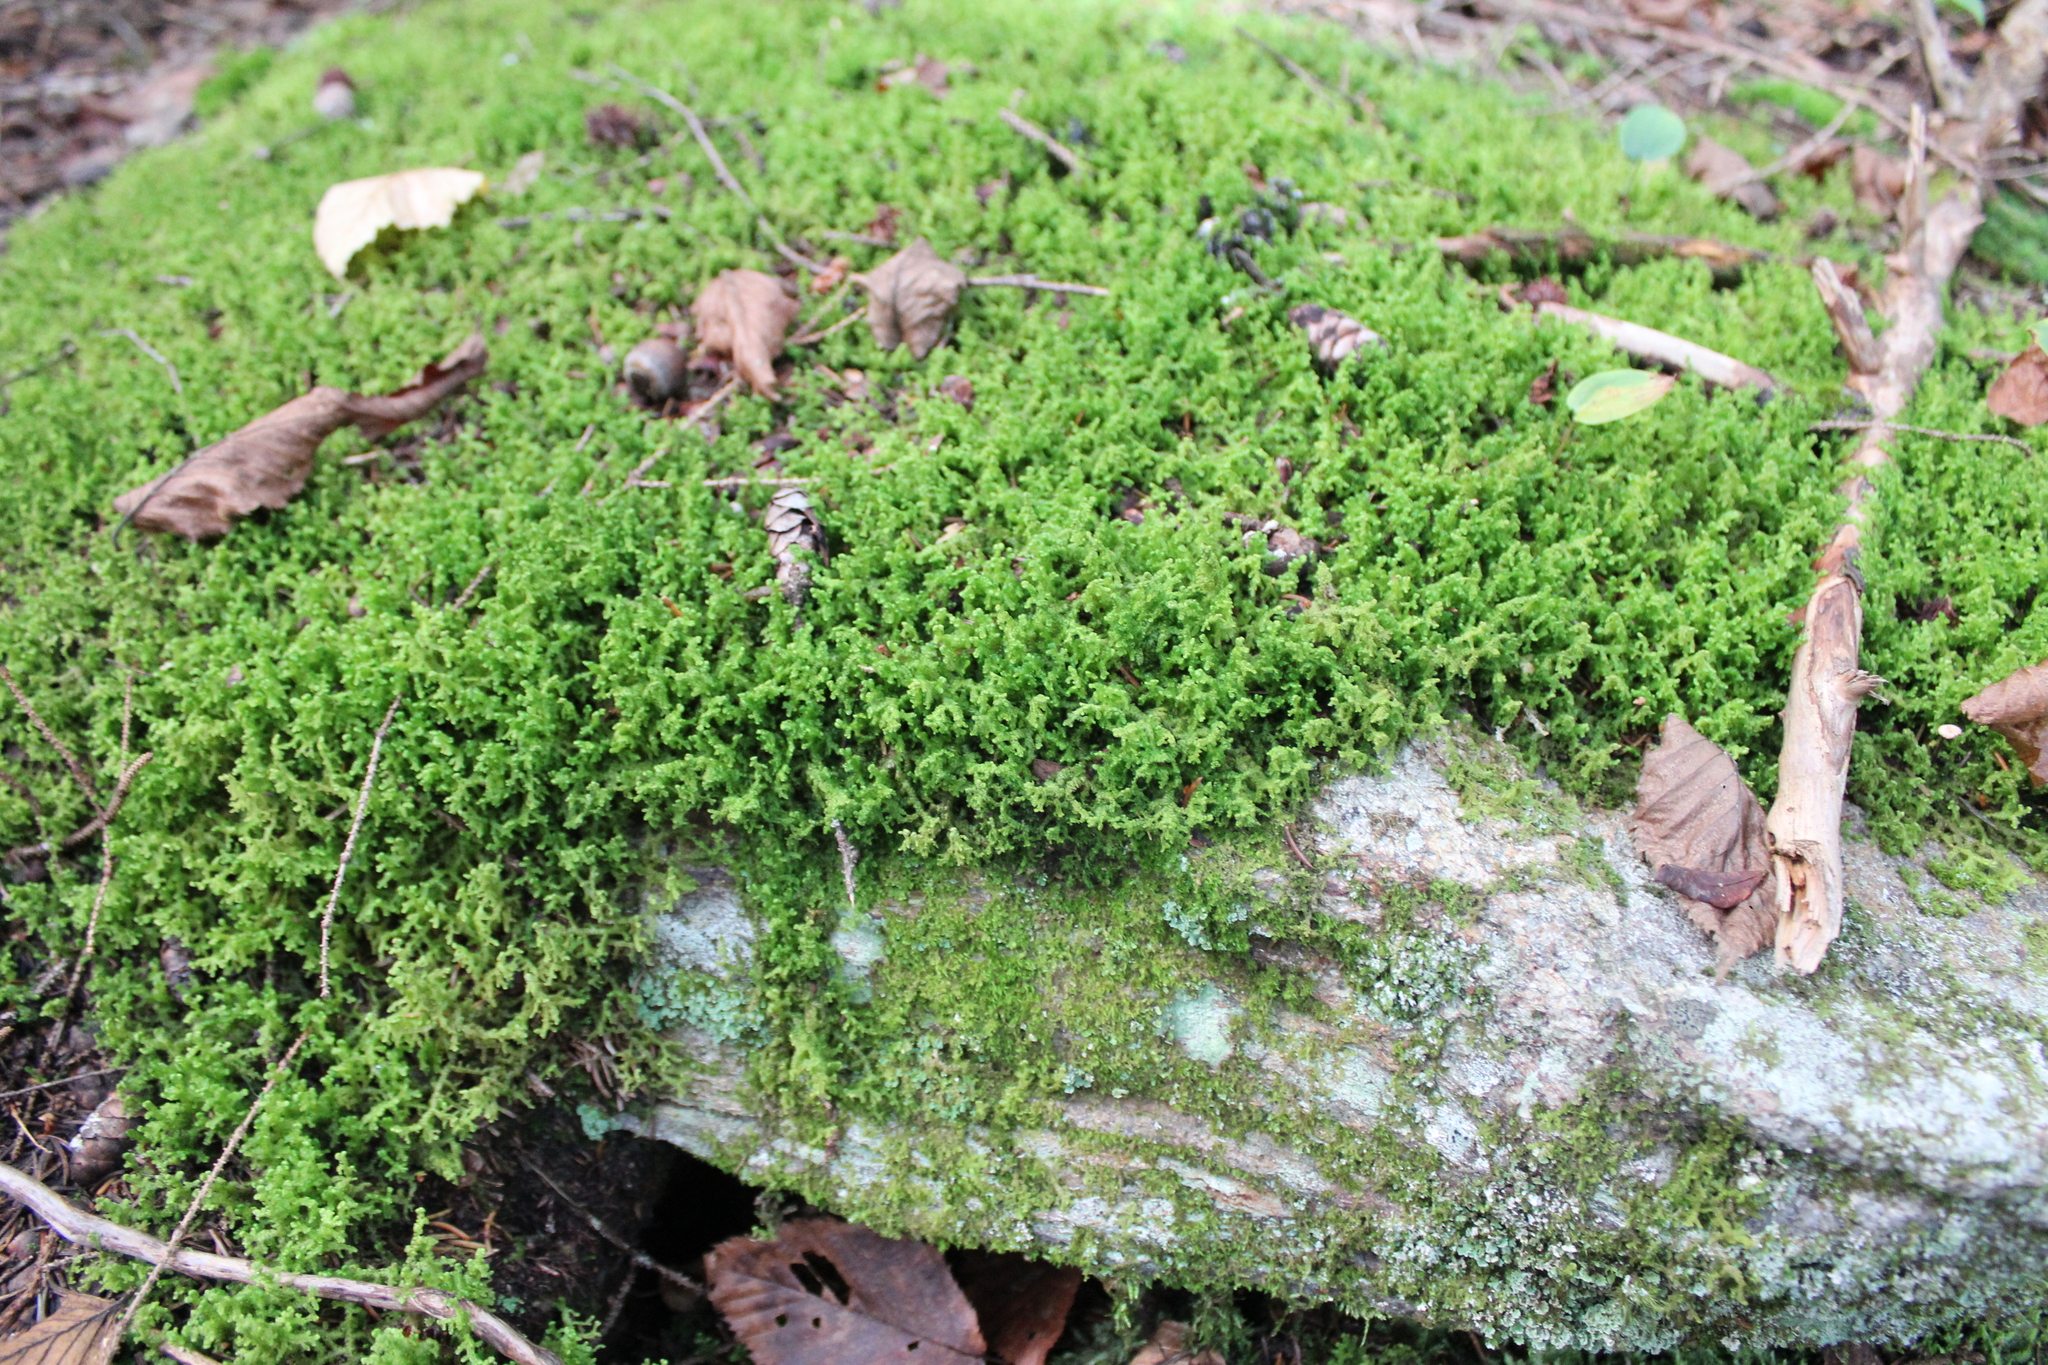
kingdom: Plantae
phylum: Marchantiophyta
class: Jungermanniopsida
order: Ptilidiales
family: Ptilidiaceae
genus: Ptilidium
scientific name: Ptilidium ciliare
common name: Ciliate fringewort
